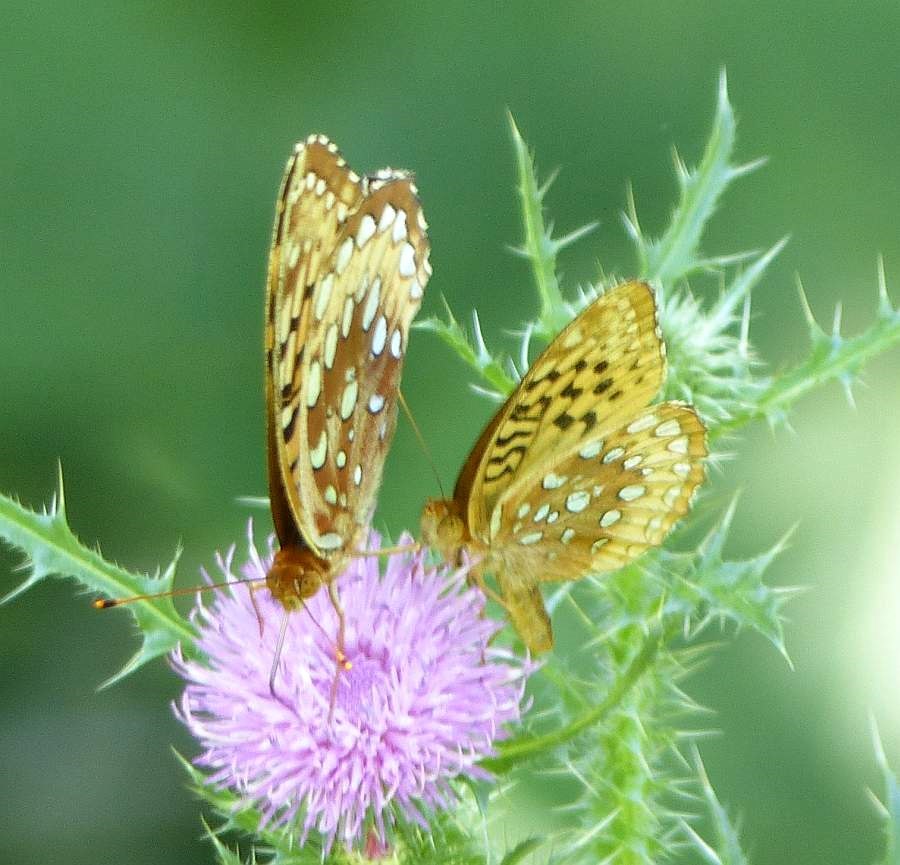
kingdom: Animalia
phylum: Arthropoda
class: Insecta
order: Lepidoptera
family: Nymphalidae
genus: Speyeria
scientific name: Speyeria cybele
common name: Great spangled fritillary
